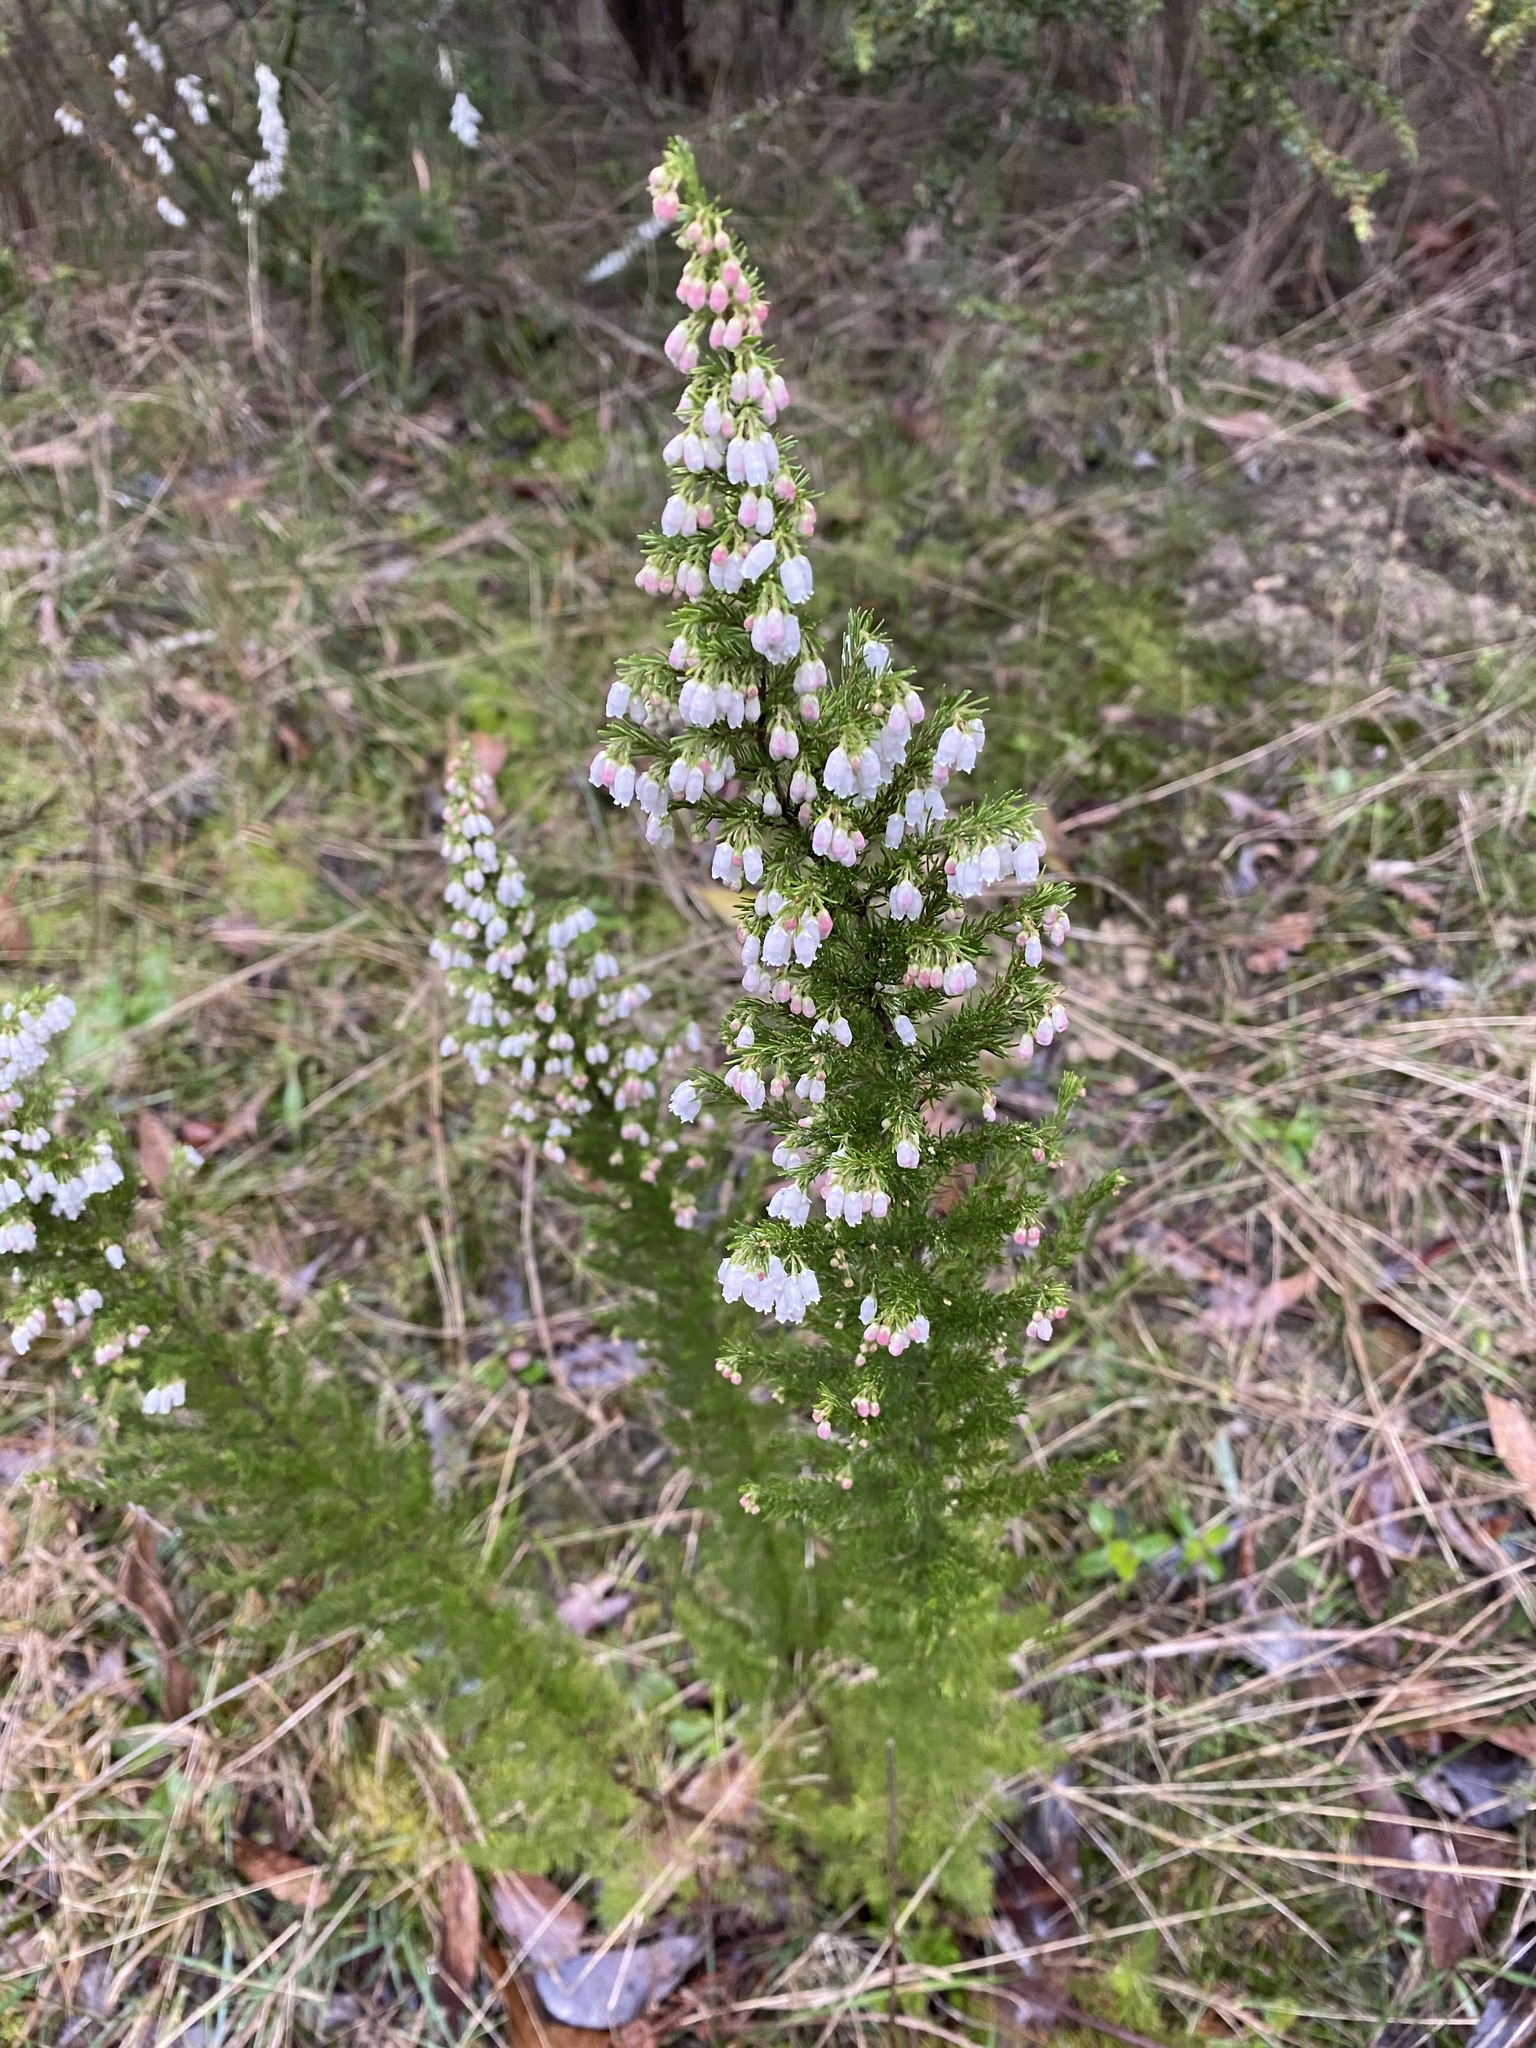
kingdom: Plantae
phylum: Tracheophyta
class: Magnoliopsida
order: Ericales
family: Ericaceae
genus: Erica
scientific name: Erica lusitanica
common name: Spanish heath
